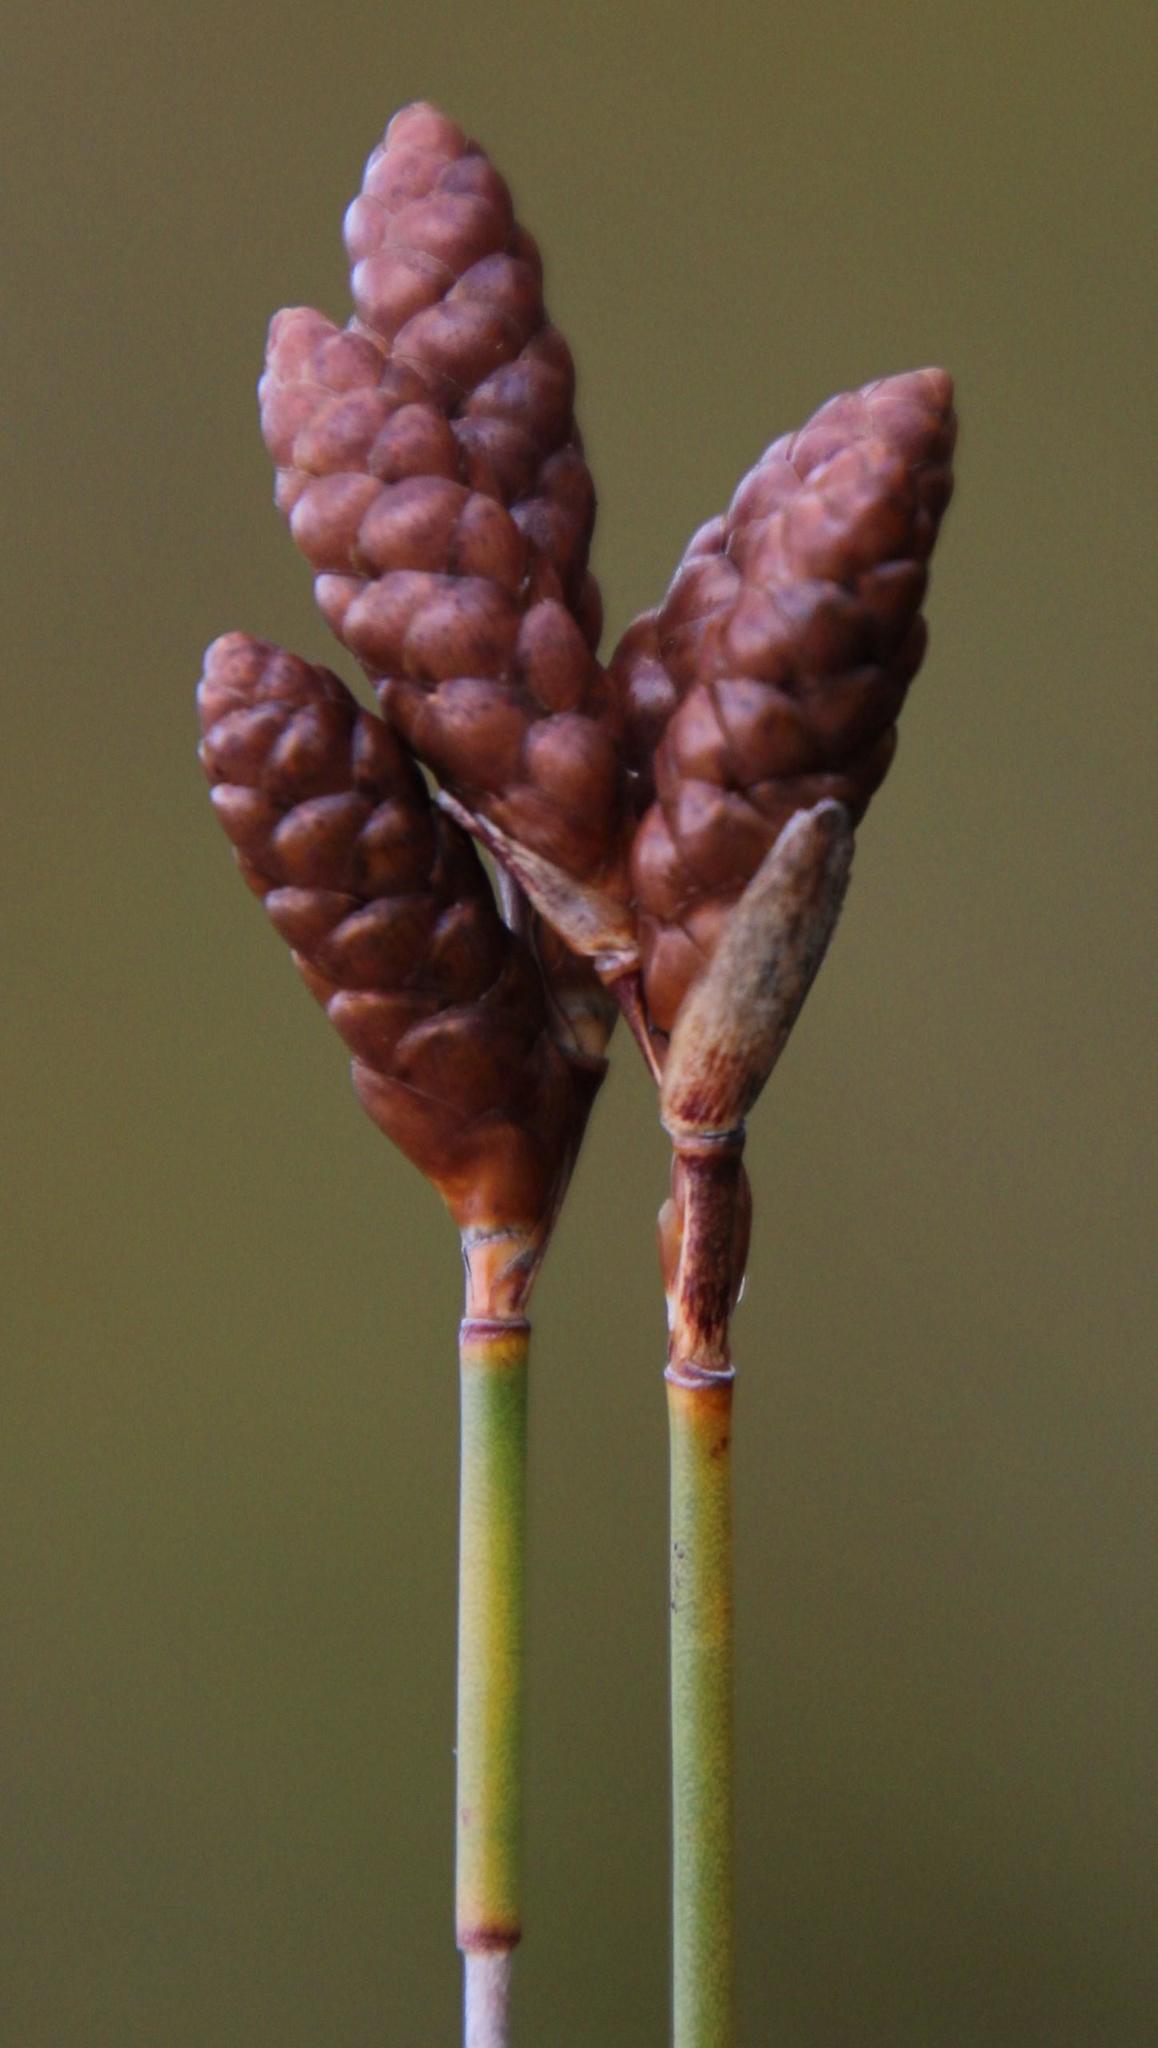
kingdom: Plantae
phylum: Tracheophyta
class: Liliopsida
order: Poales
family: Restionaceae
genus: Nevillea
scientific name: Nevillea obtusissimus
